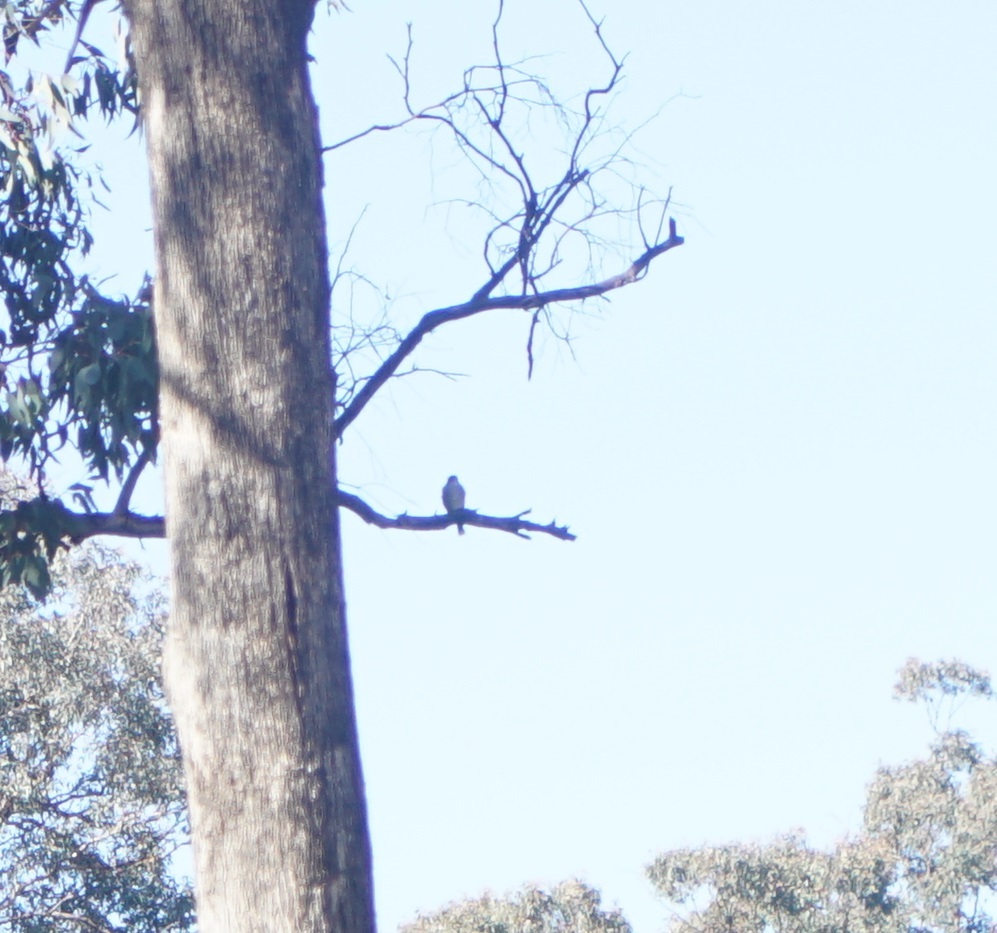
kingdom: Animalia
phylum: Chordata
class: Aves
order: Passeriformes
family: Cracticidae
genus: Cracticus
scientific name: Cracticus torquatus
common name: Grey butcherbird
